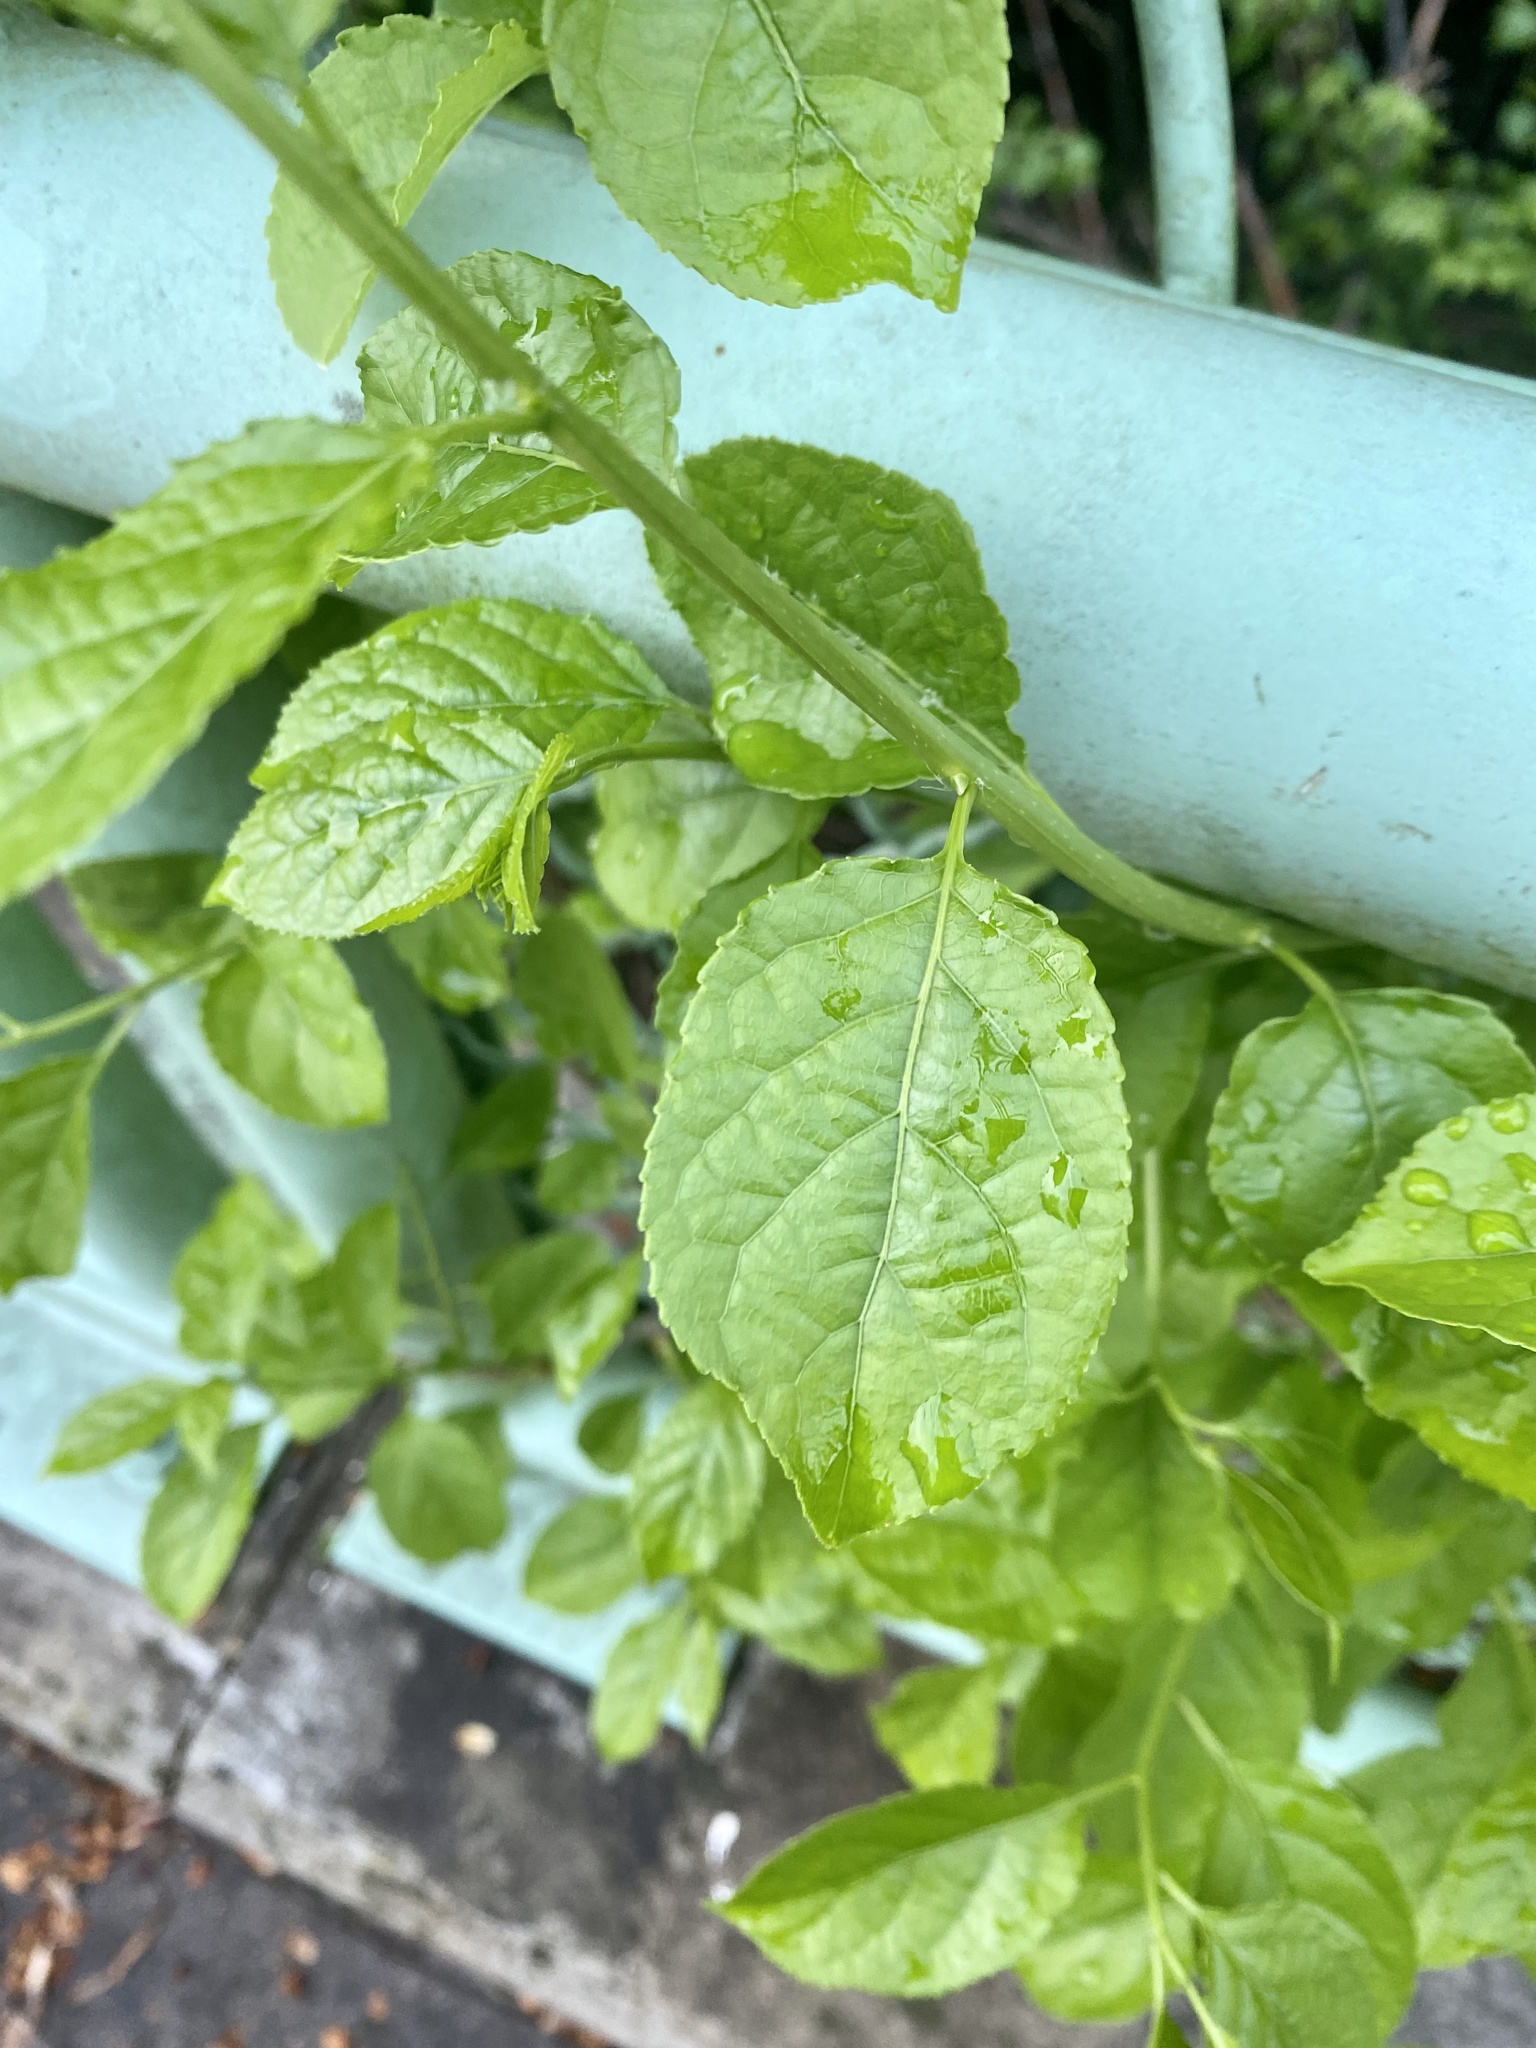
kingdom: Plantae
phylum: Tracheophyta
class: Magnoliopsida
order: Celastrales
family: Celastraceae
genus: Celastrus
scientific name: Celastrus orbiculatus
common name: Oriental bittersweet
